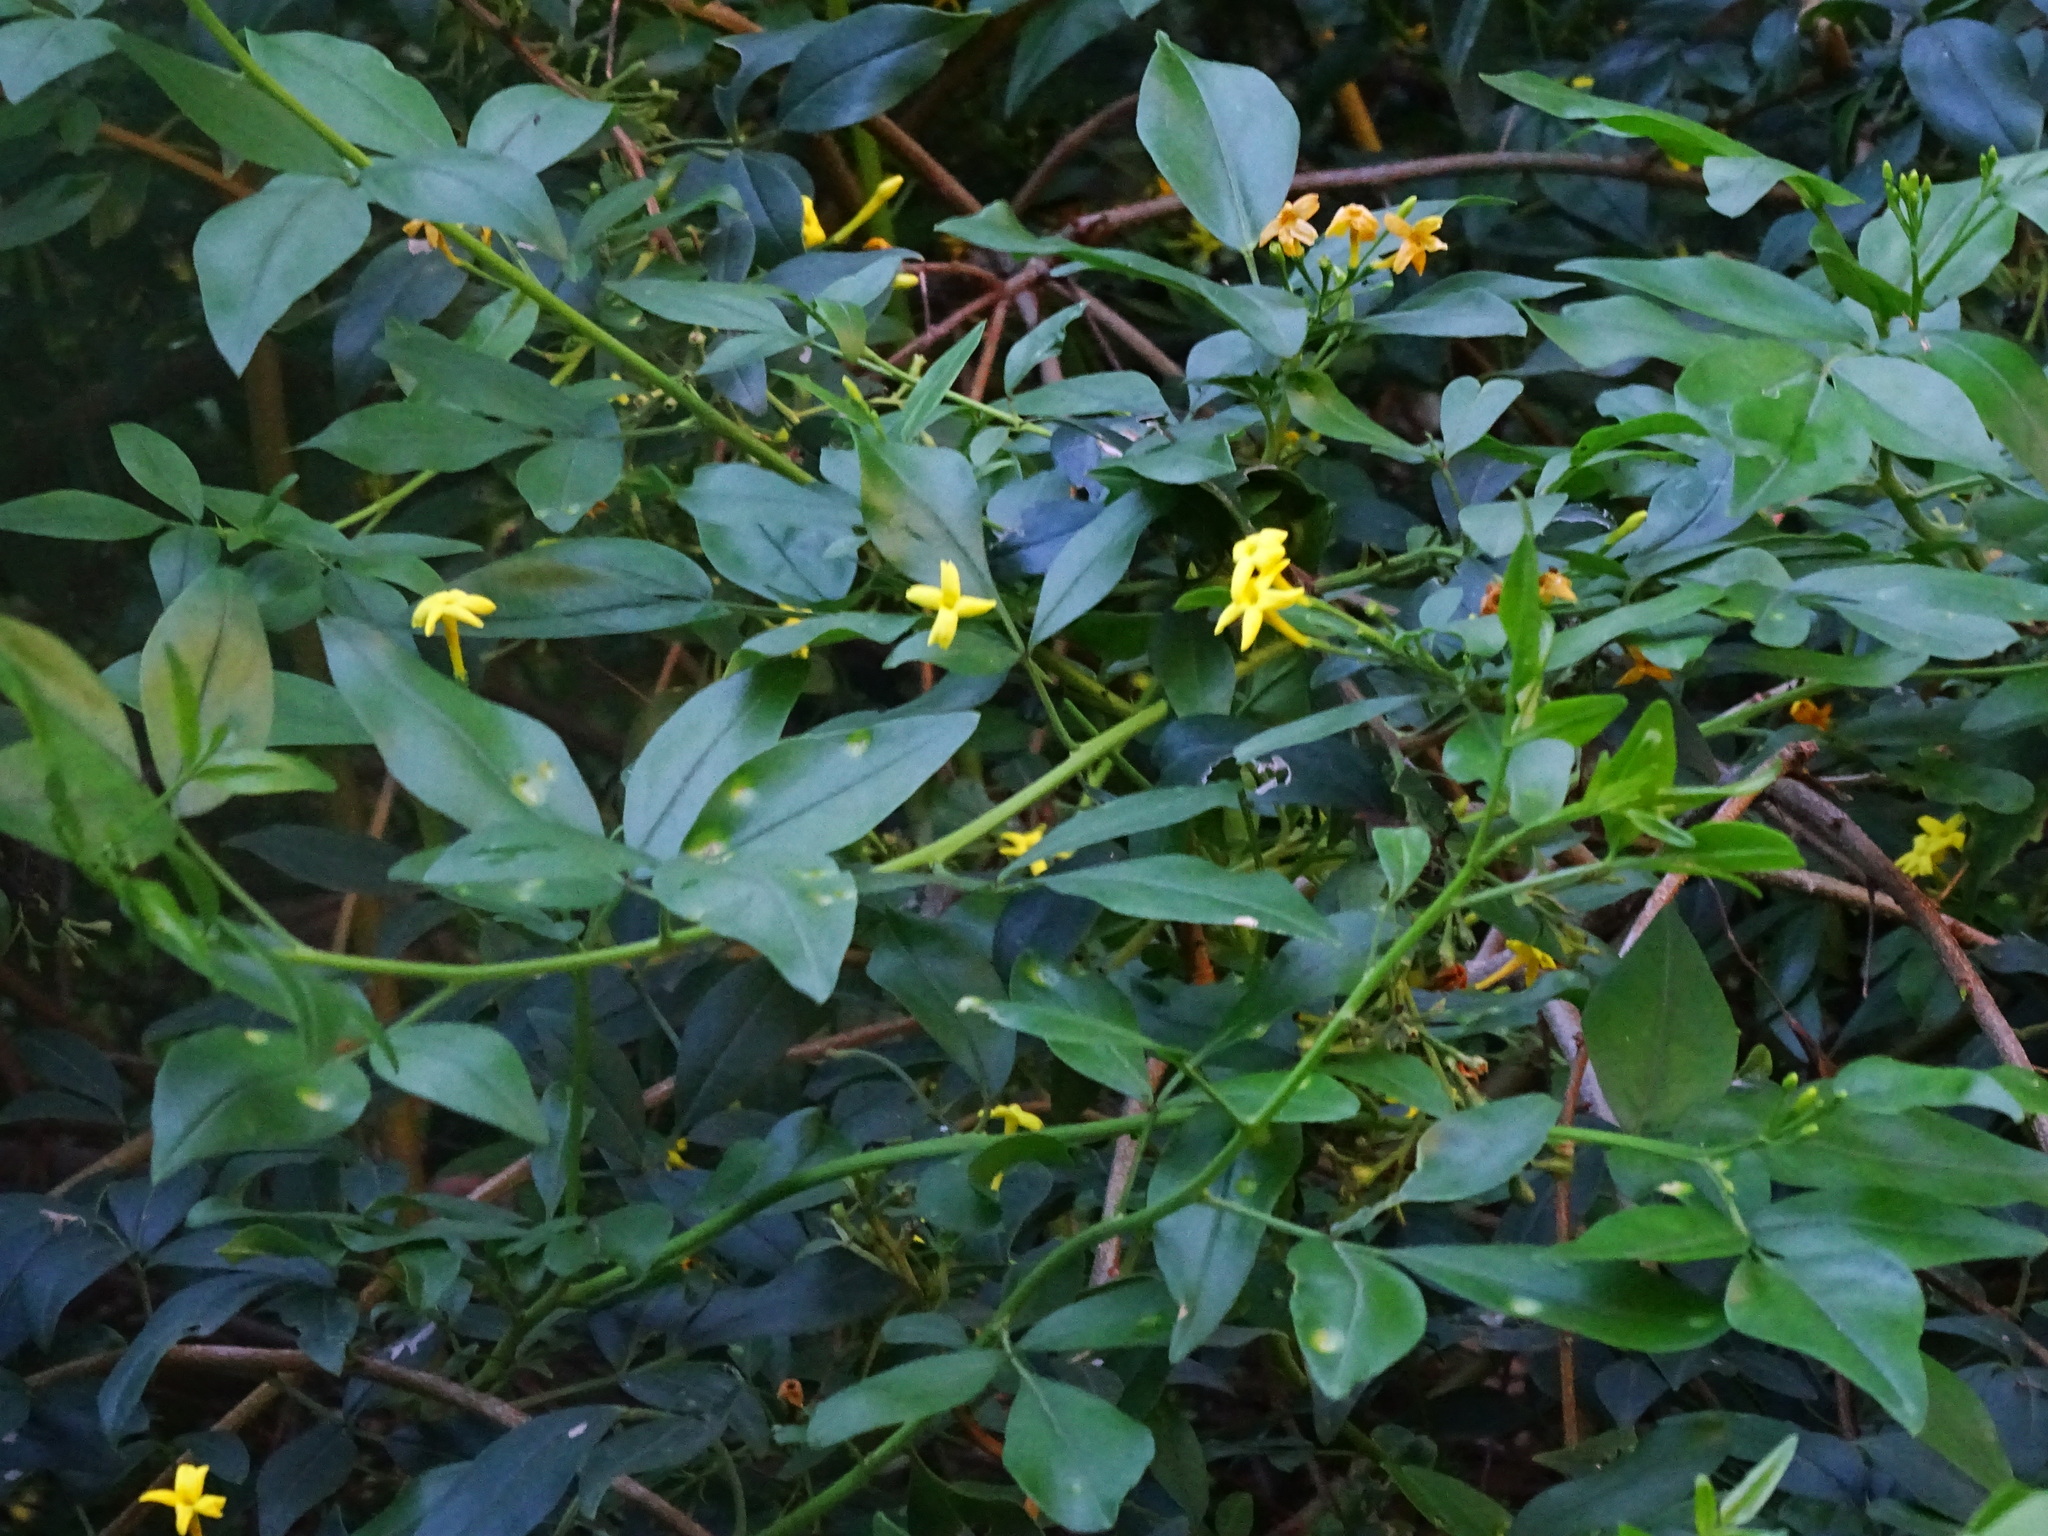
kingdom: Plantae
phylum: Tracheophyta
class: Magnoliopsida
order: Lamiales
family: Oleaceae
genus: Chrysojasminum
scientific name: Chrysojasminum odoratissimum
